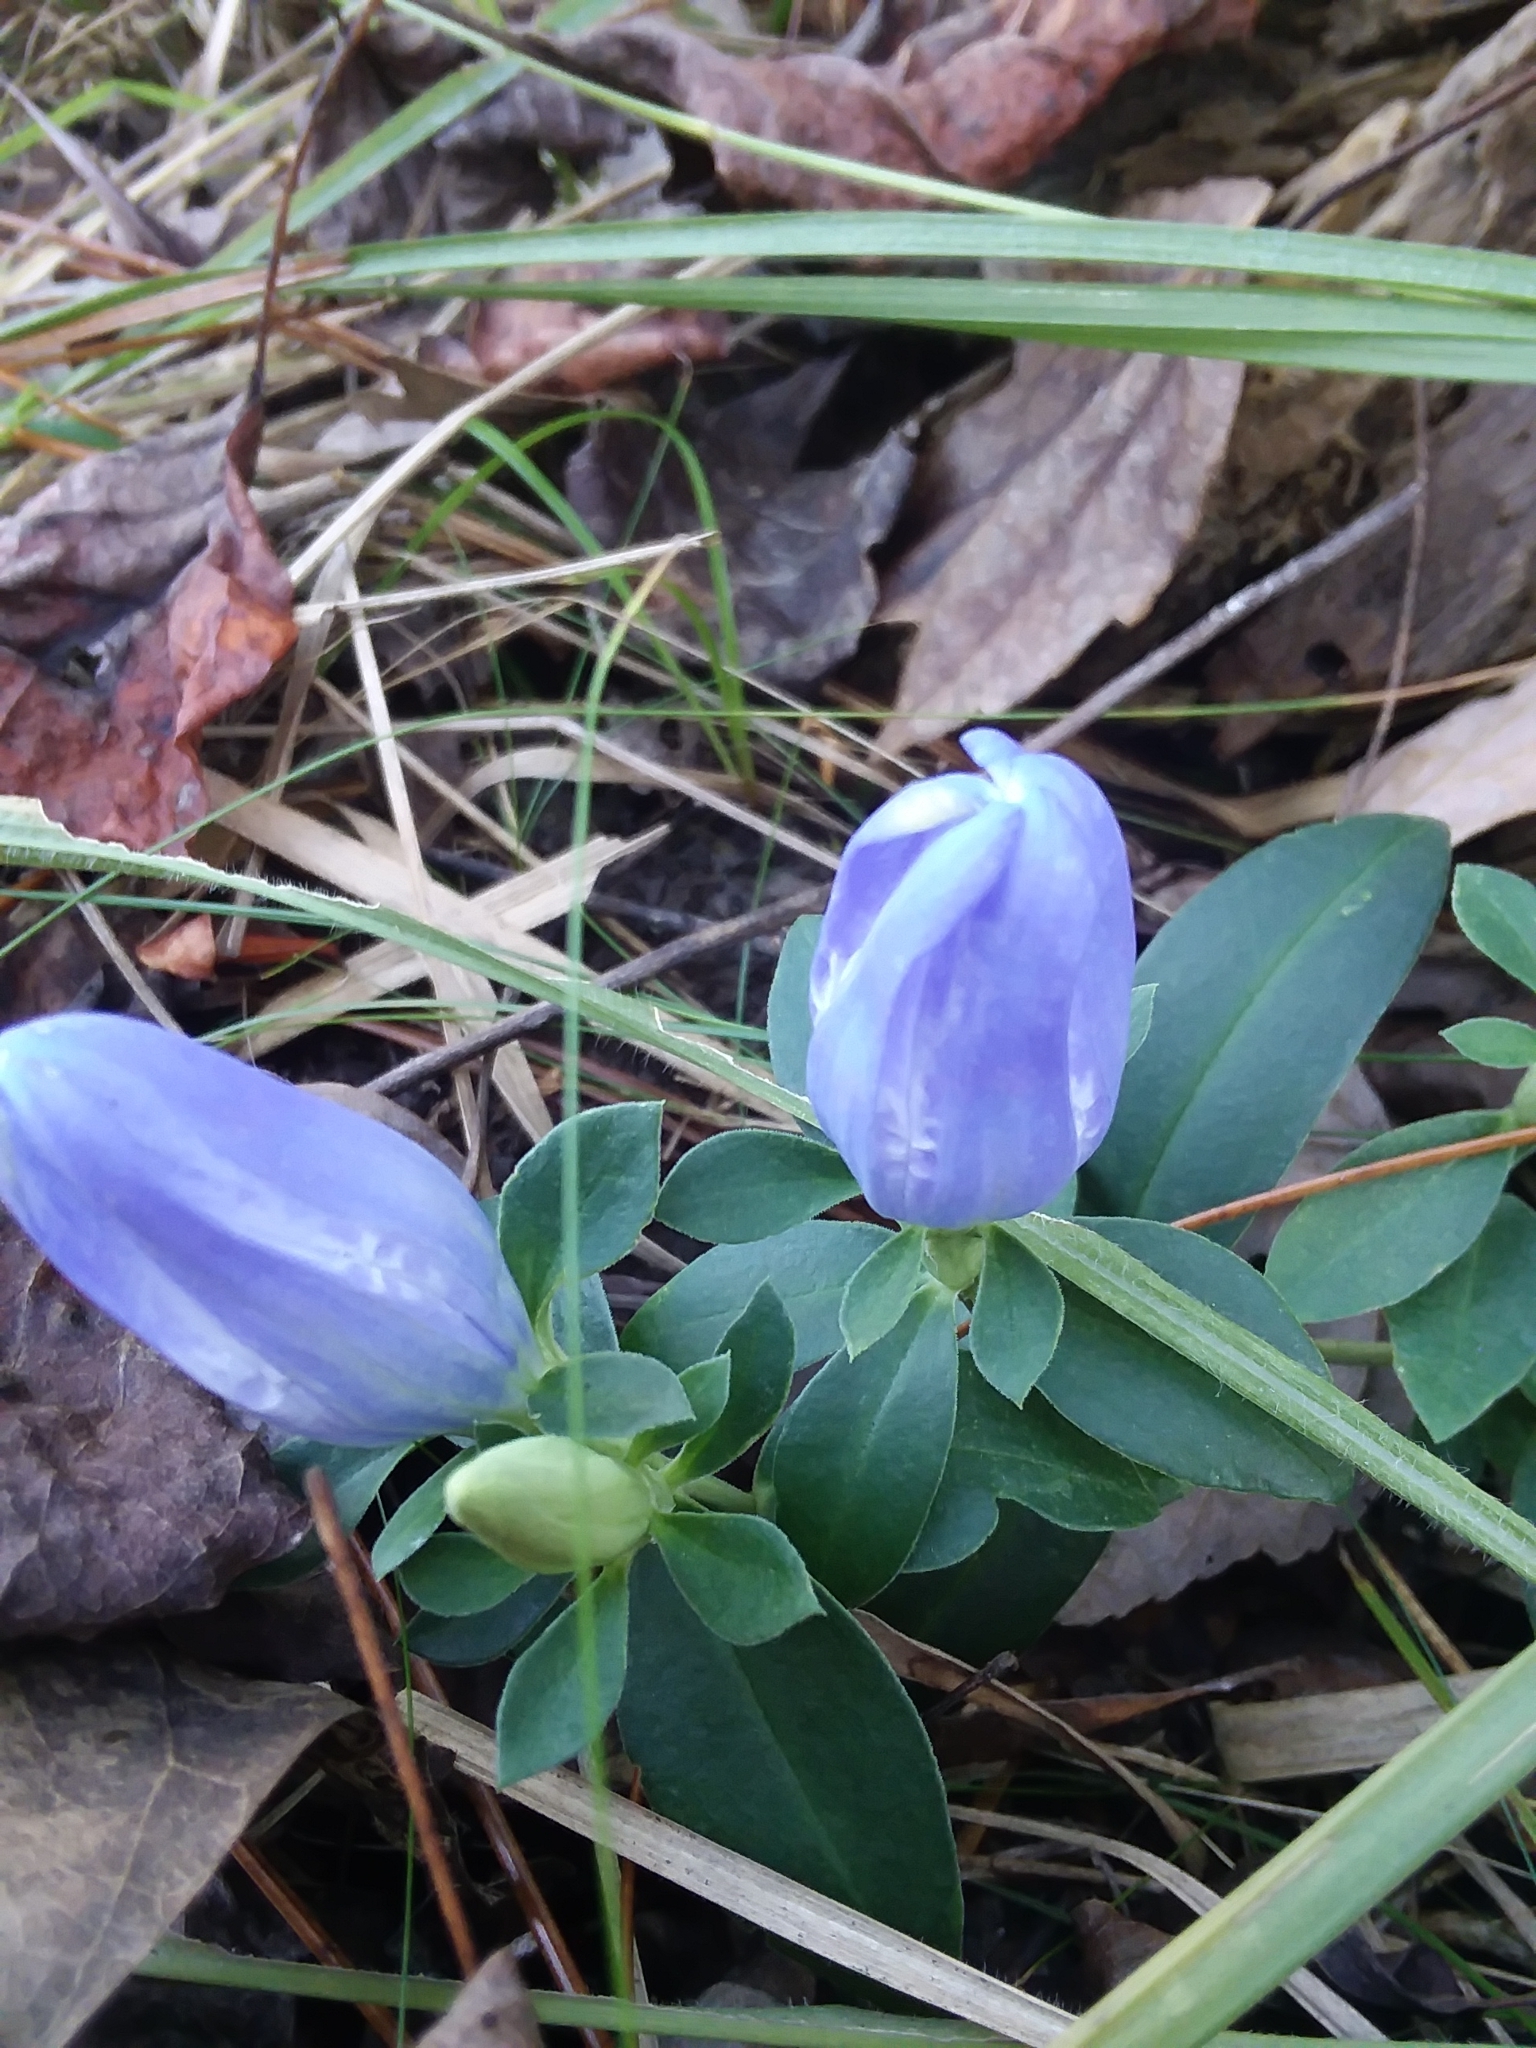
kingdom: Plantae
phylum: Tracheophyta
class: Magnoliopsida
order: Gentianales
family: Gentianaceae
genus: Gentiana
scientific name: Gentiana catesbaei
